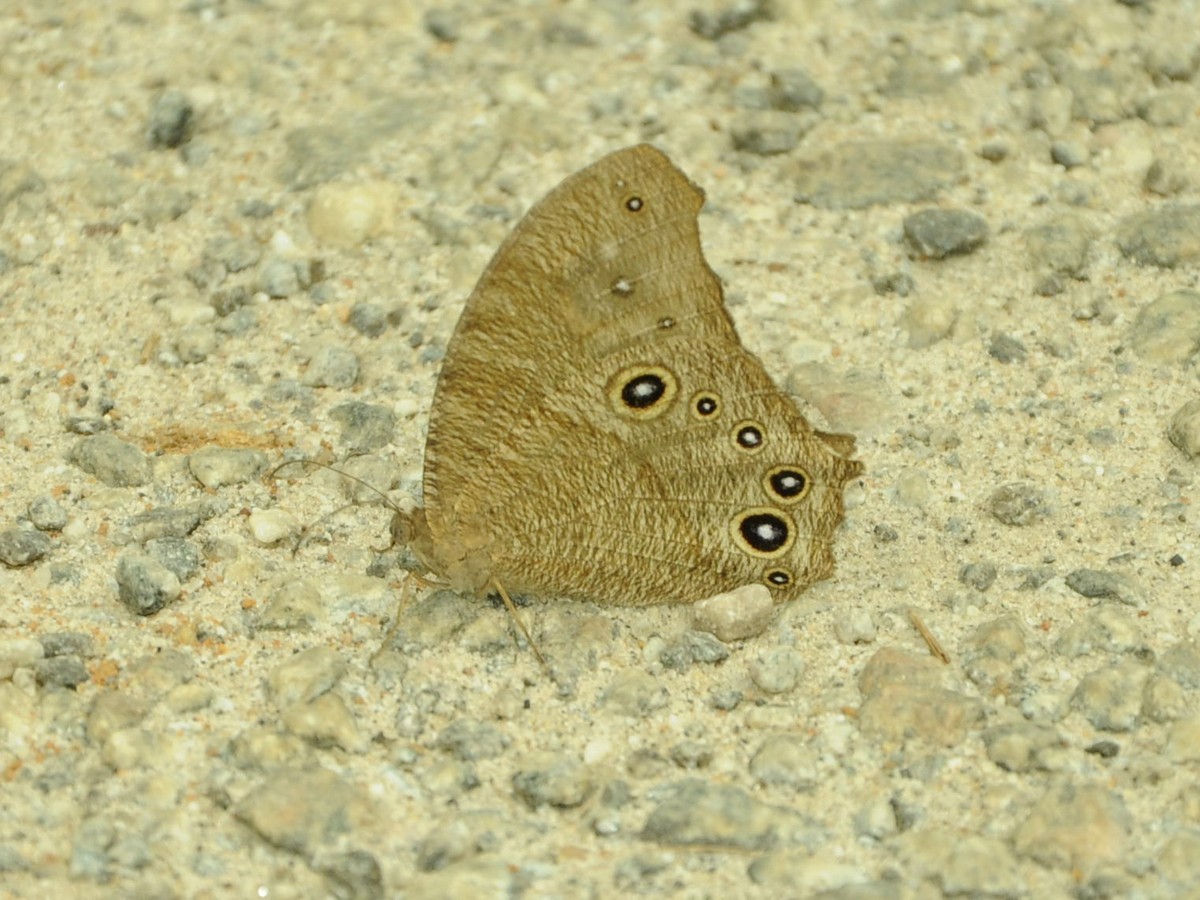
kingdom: Animalia
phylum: Arthropoda
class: Insecta
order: Lepidoptera
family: Nymphalidae
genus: Melanitis
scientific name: Melanitis leda
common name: Twilight brown
